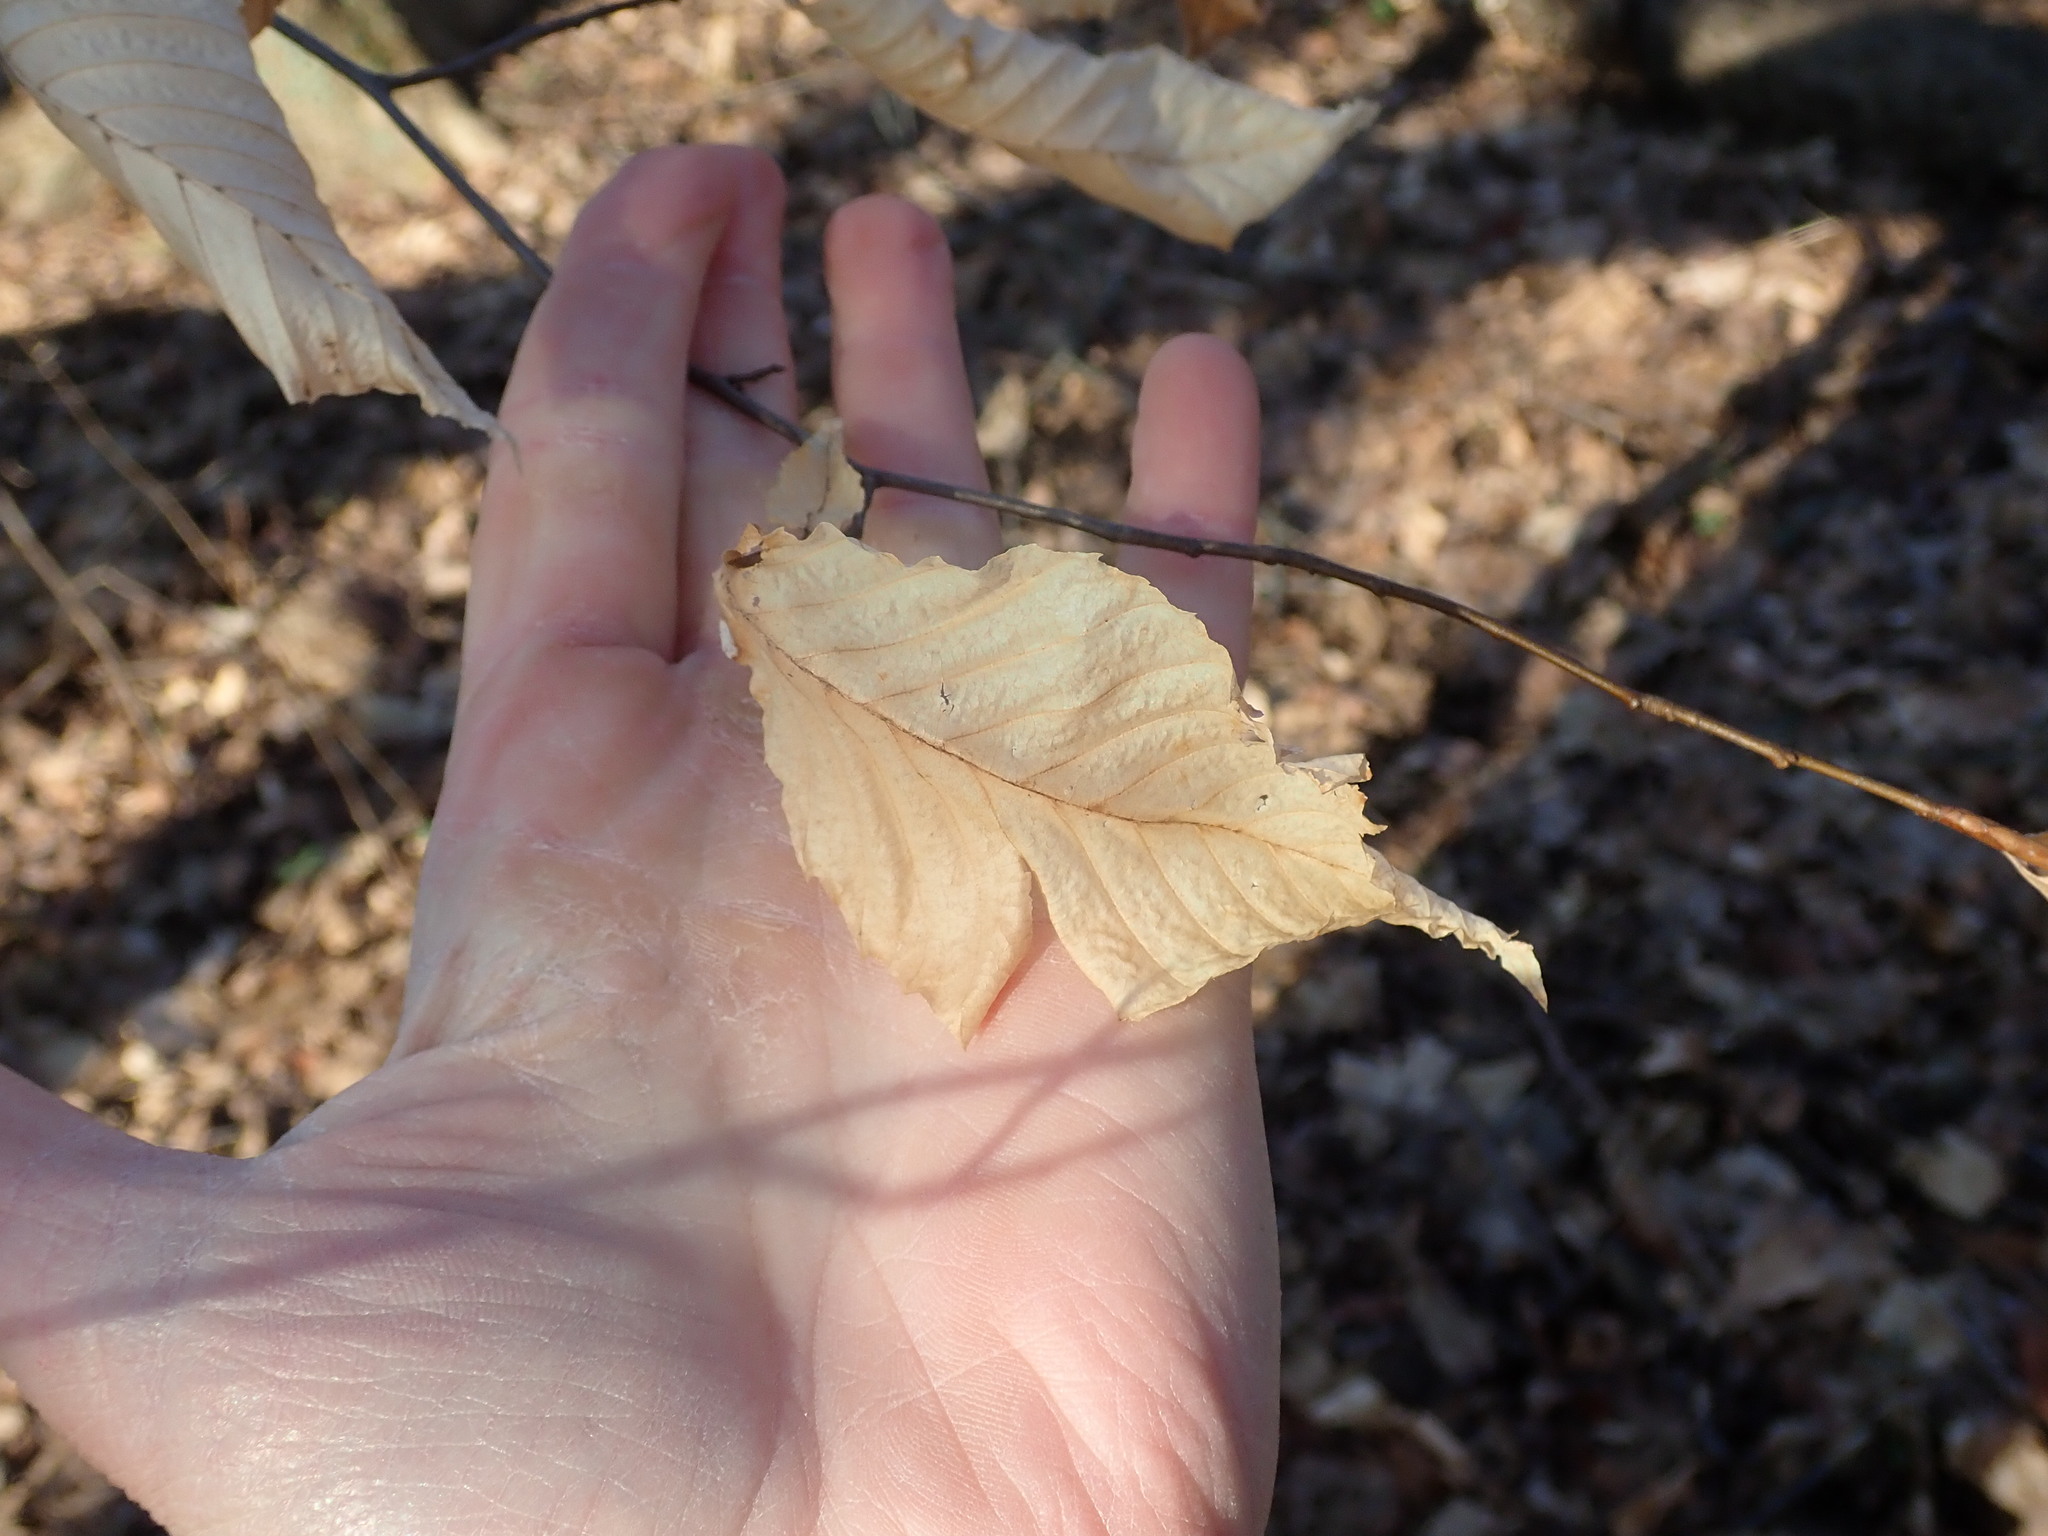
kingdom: Plantae
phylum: Tracheophyta
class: Magnoliopsida
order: Fagales
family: Fagaceae
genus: Fagus
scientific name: Fagus grandifolia
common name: American beech
